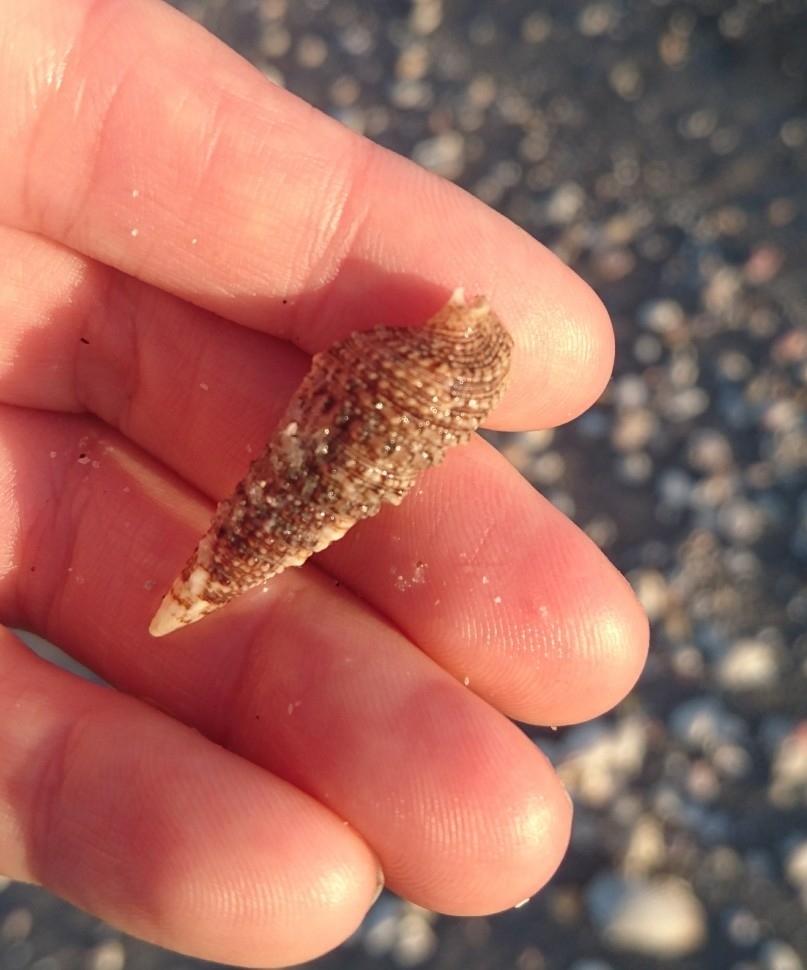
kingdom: Animalia
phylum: Mollusca
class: Gastropoda
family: Cerithiidae
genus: Cerithium
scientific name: Cerithium atratum
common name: Dark cerith
